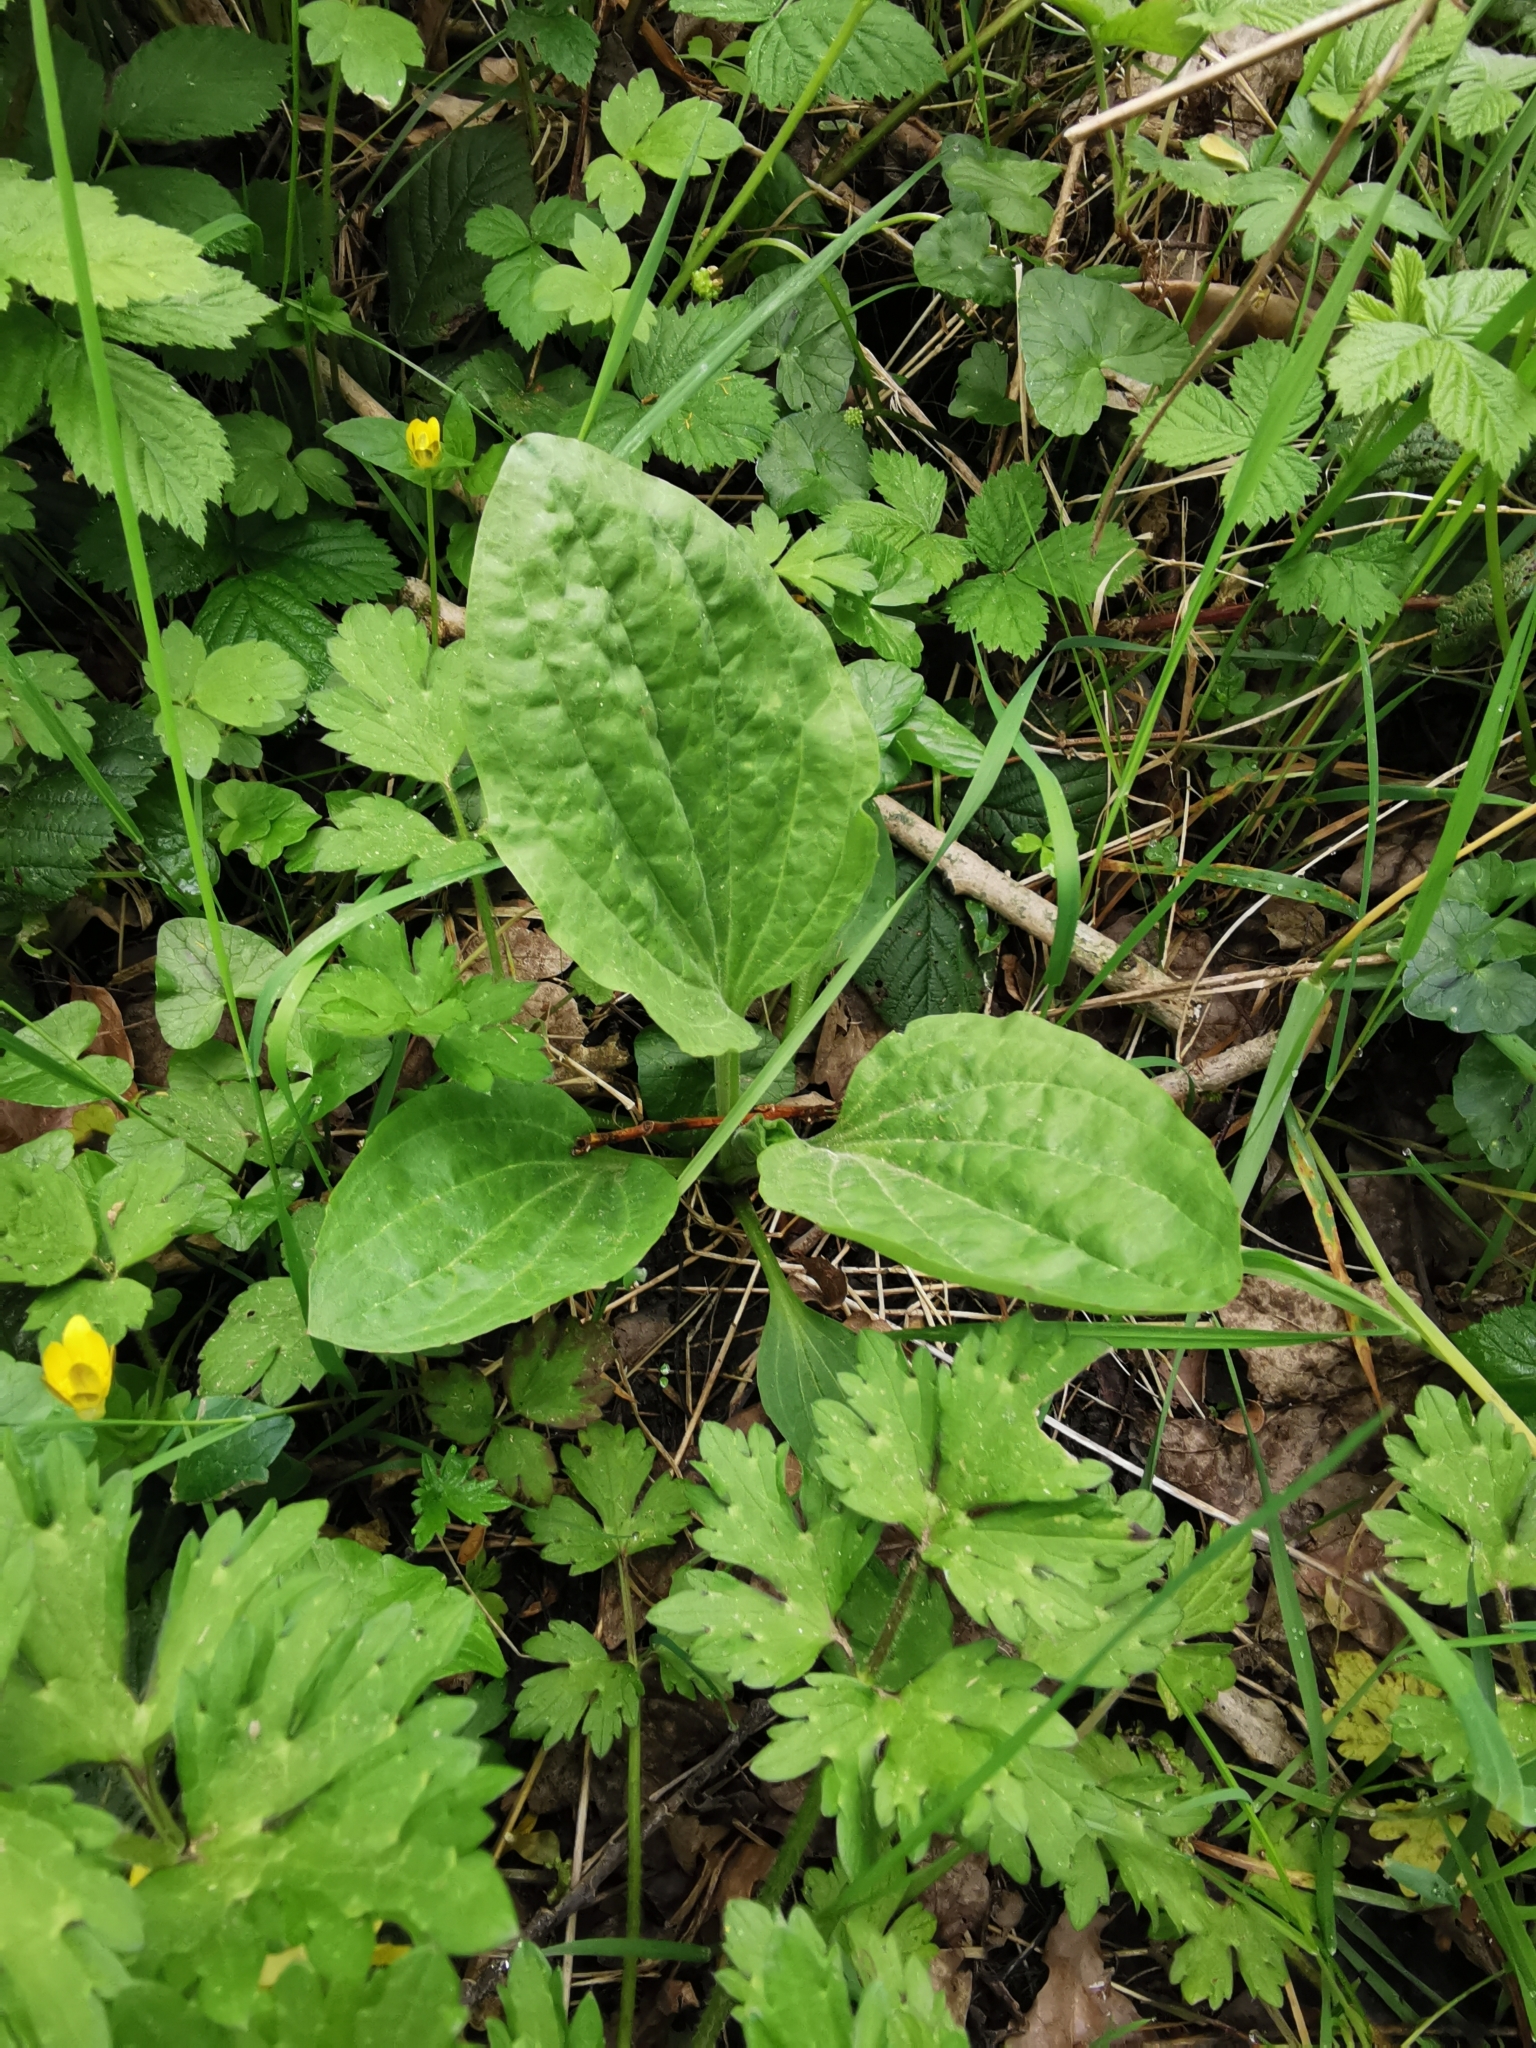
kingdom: Plantae
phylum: Tracheophyta
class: Magnoliopsida
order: Lamiales
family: Plantaginaceae
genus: Plantago
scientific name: Plantago major
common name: Common plantain
